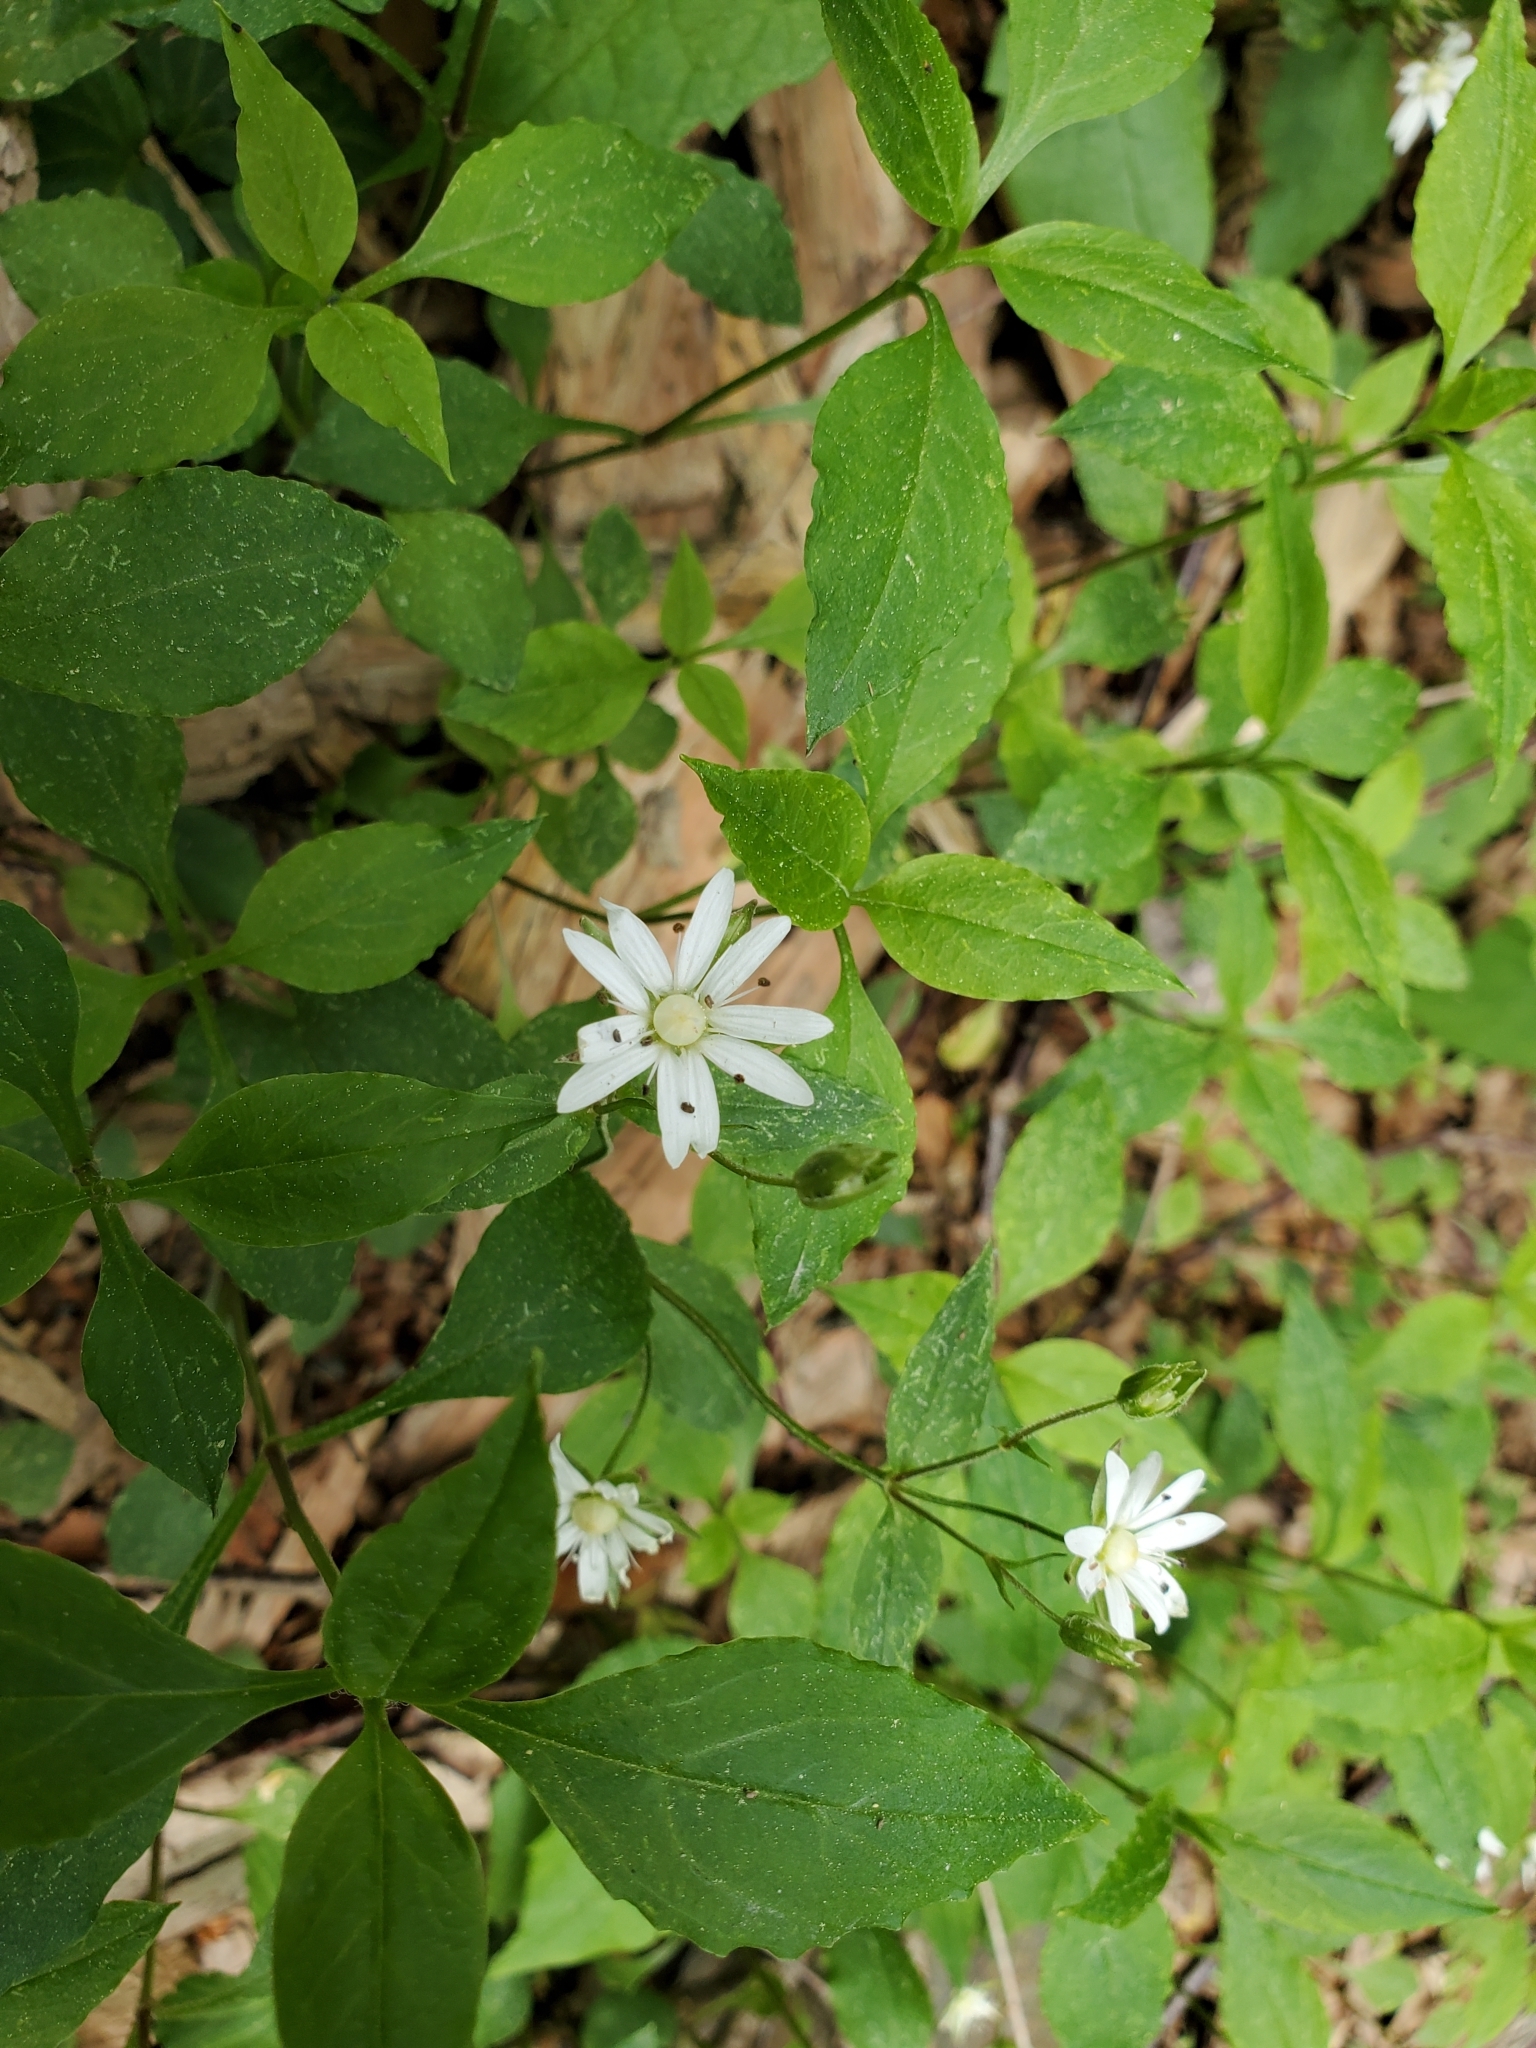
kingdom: Plantae
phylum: Tracheophyta
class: Magnoliopsida
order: Caryophyllales
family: Caryophyllaceae
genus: Stellaria
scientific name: Stellaria pubera
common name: Star chickweed
